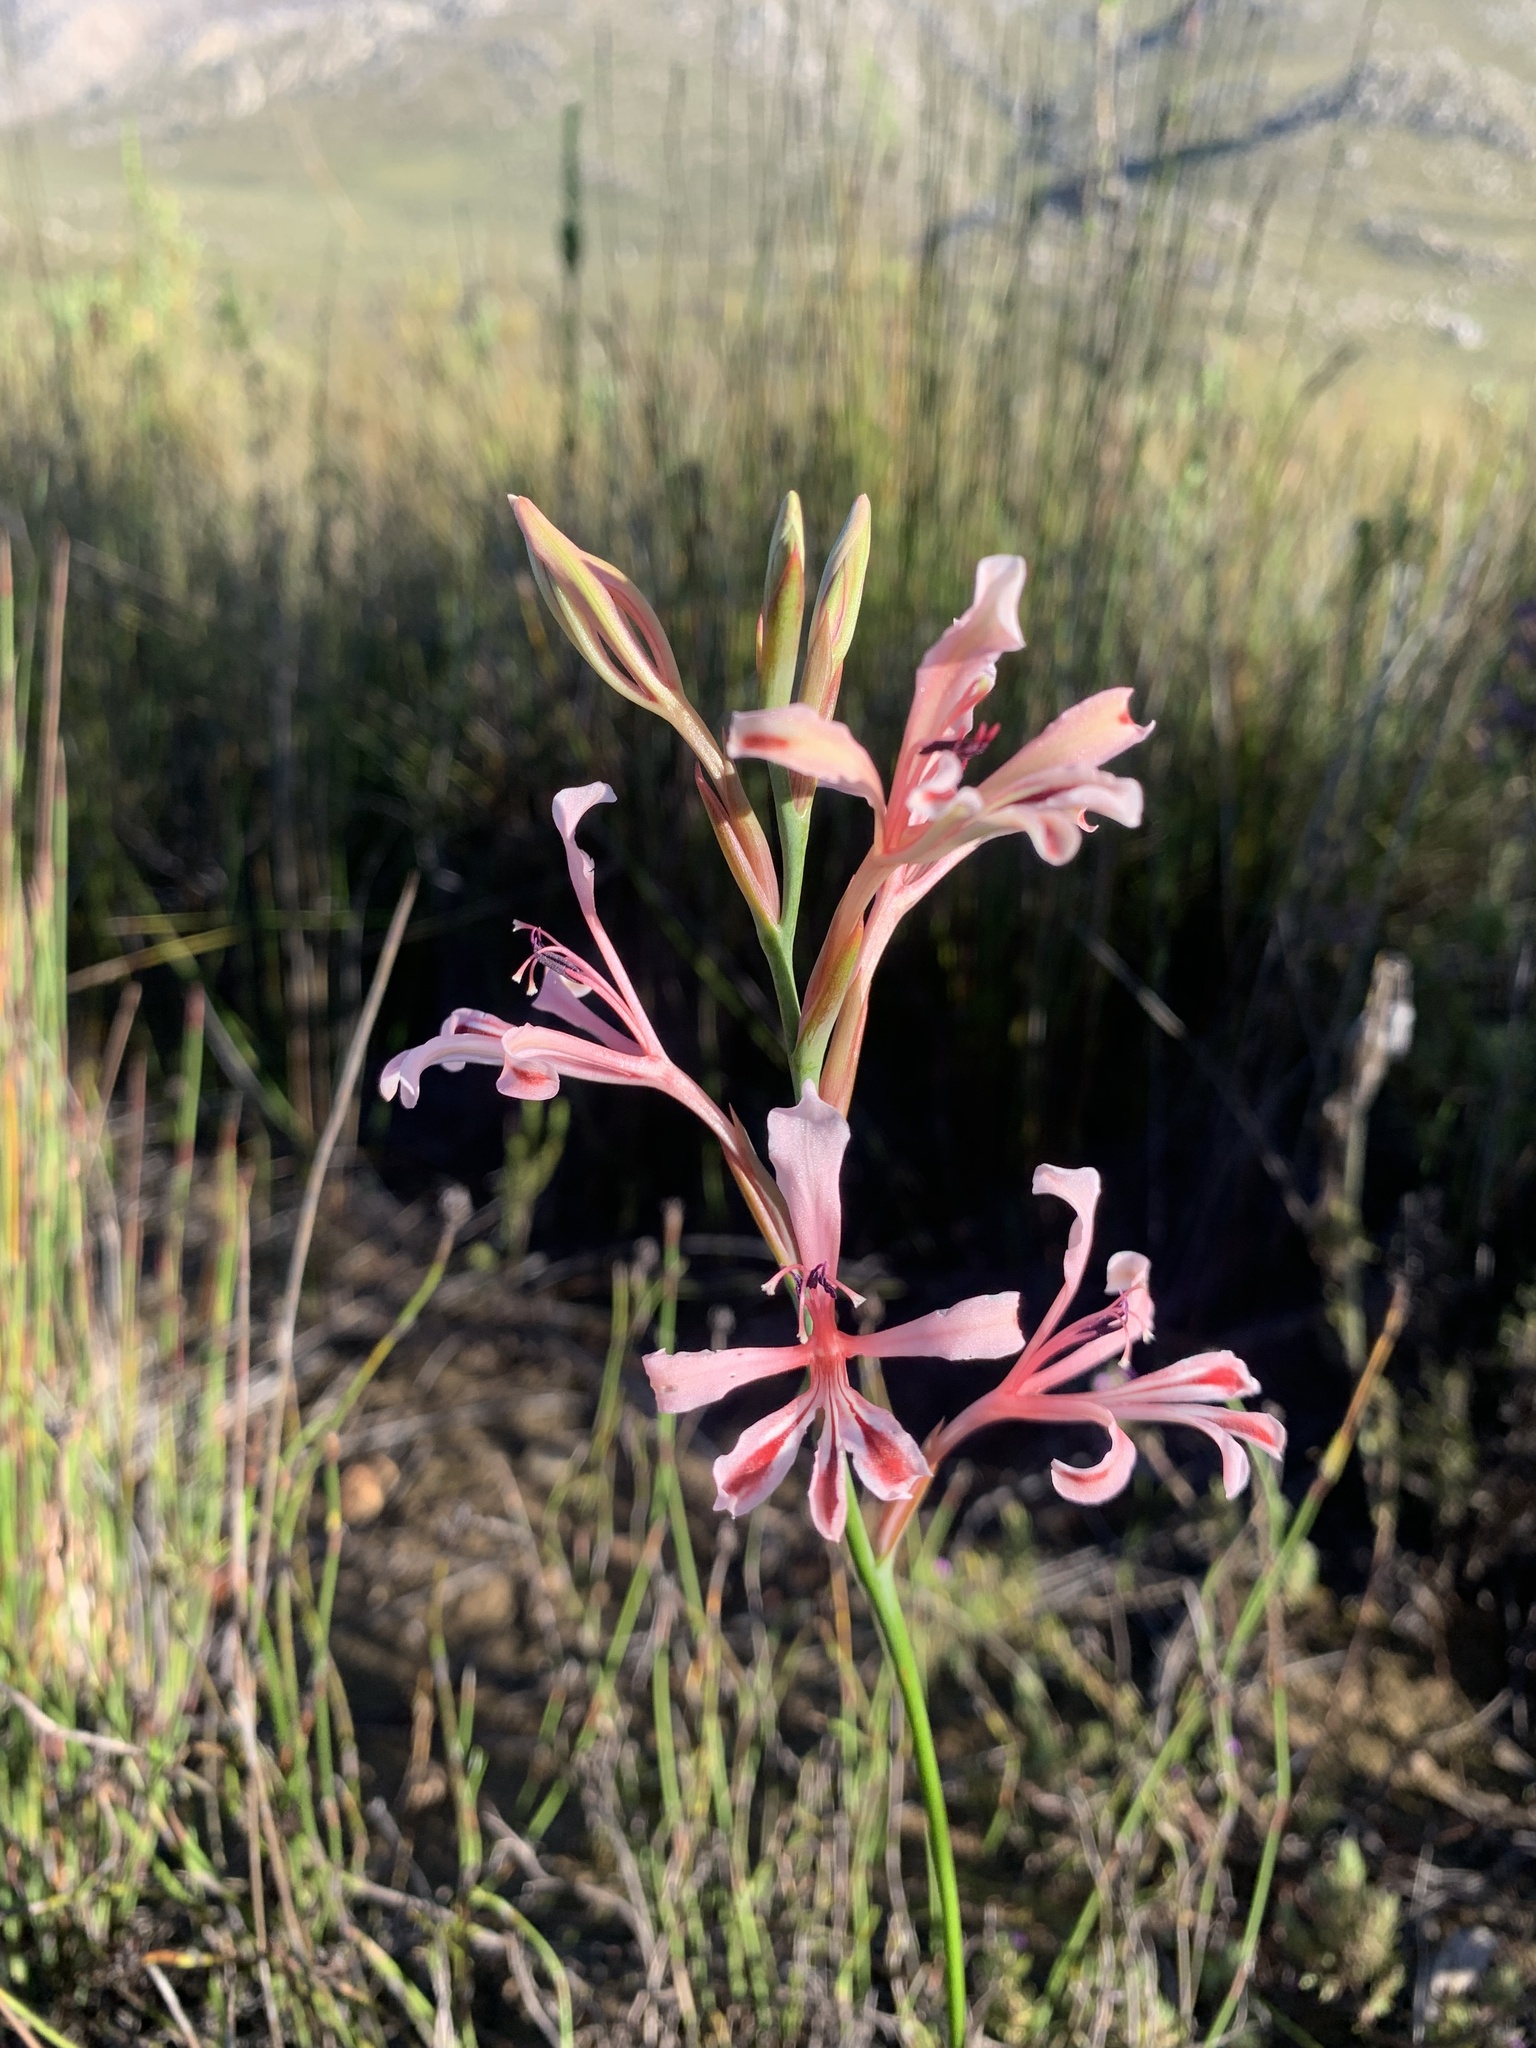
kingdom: Plantae
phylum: Tracheophyta
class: Liliopsida
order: Asparagales
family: Iridaceae
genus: Tritoniopsis
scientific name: Tritoniopsis revoluta
